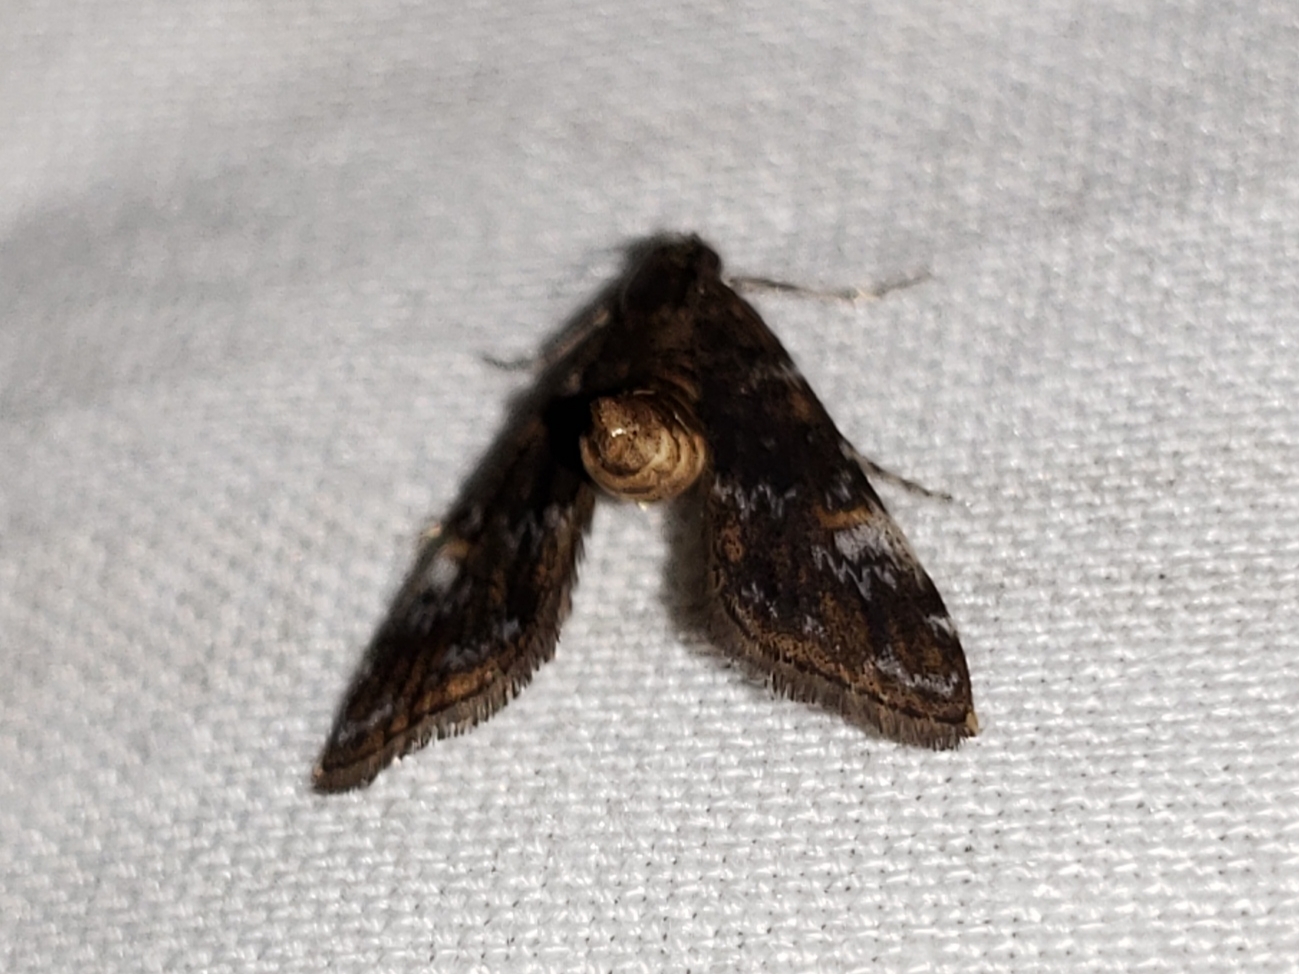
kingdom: Animalia
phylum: Arthropoda
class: Insecta
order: Lepidoptera
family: Crambidae
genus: Elophila
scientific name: Elophila obliteralis
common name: Waterlily leafcutter moth
